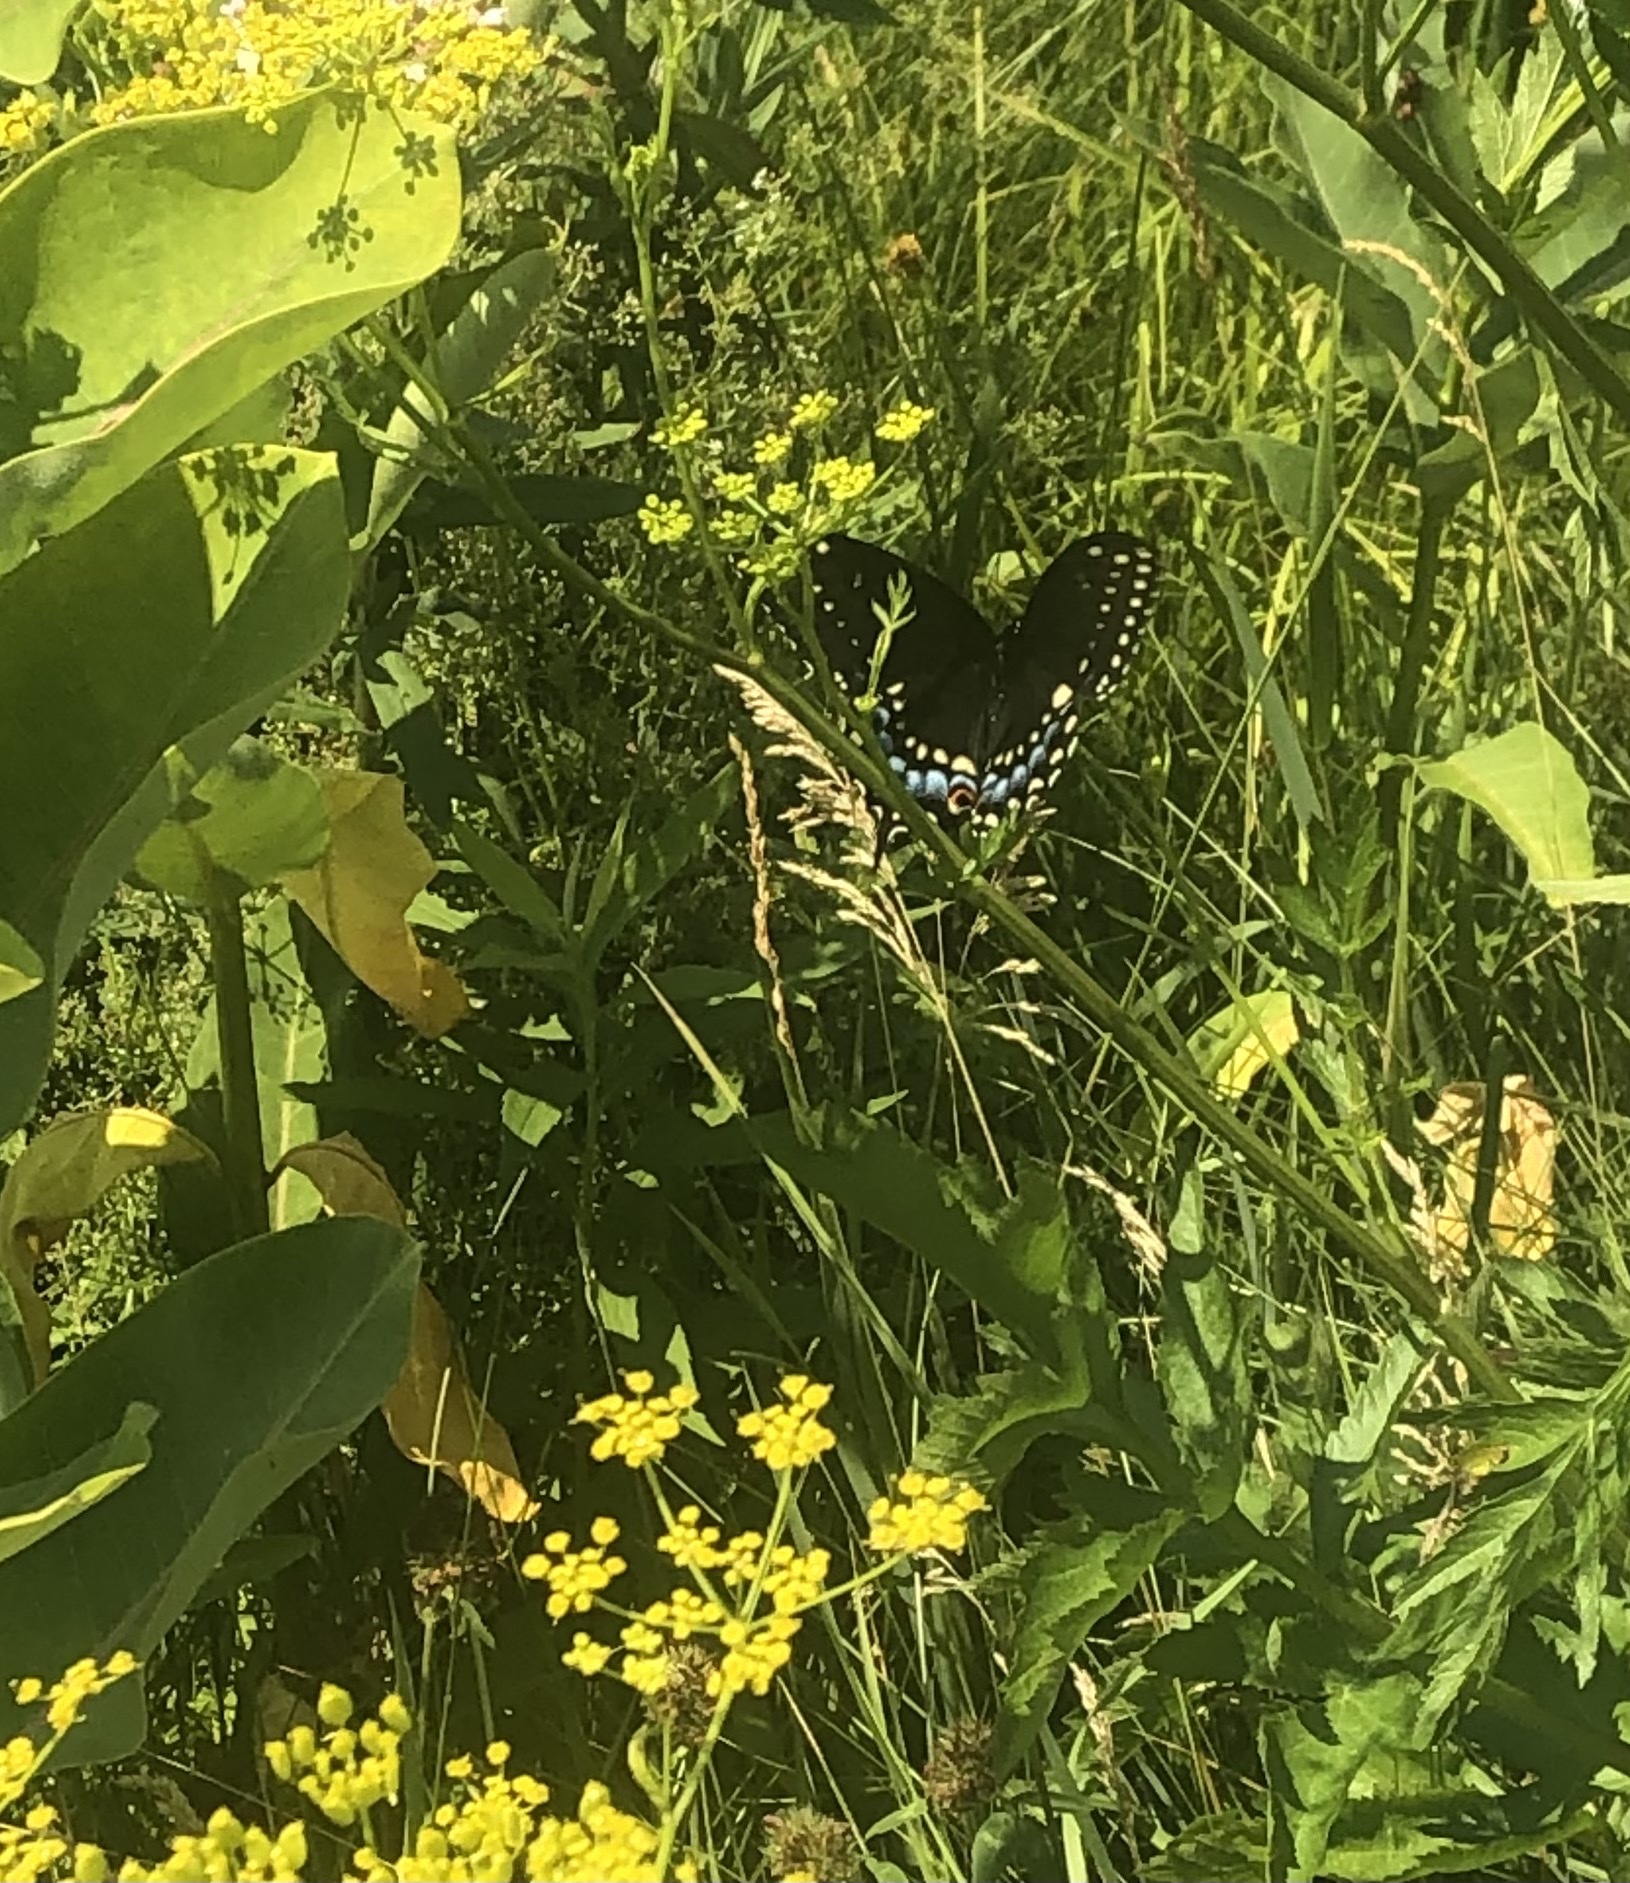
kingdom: Animalia
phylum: Arthropoda
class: Insecta
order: Lepidoptera
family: Papilionidae
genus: Papilio
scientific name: Papilio polyxenes
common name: Black swallowtail
